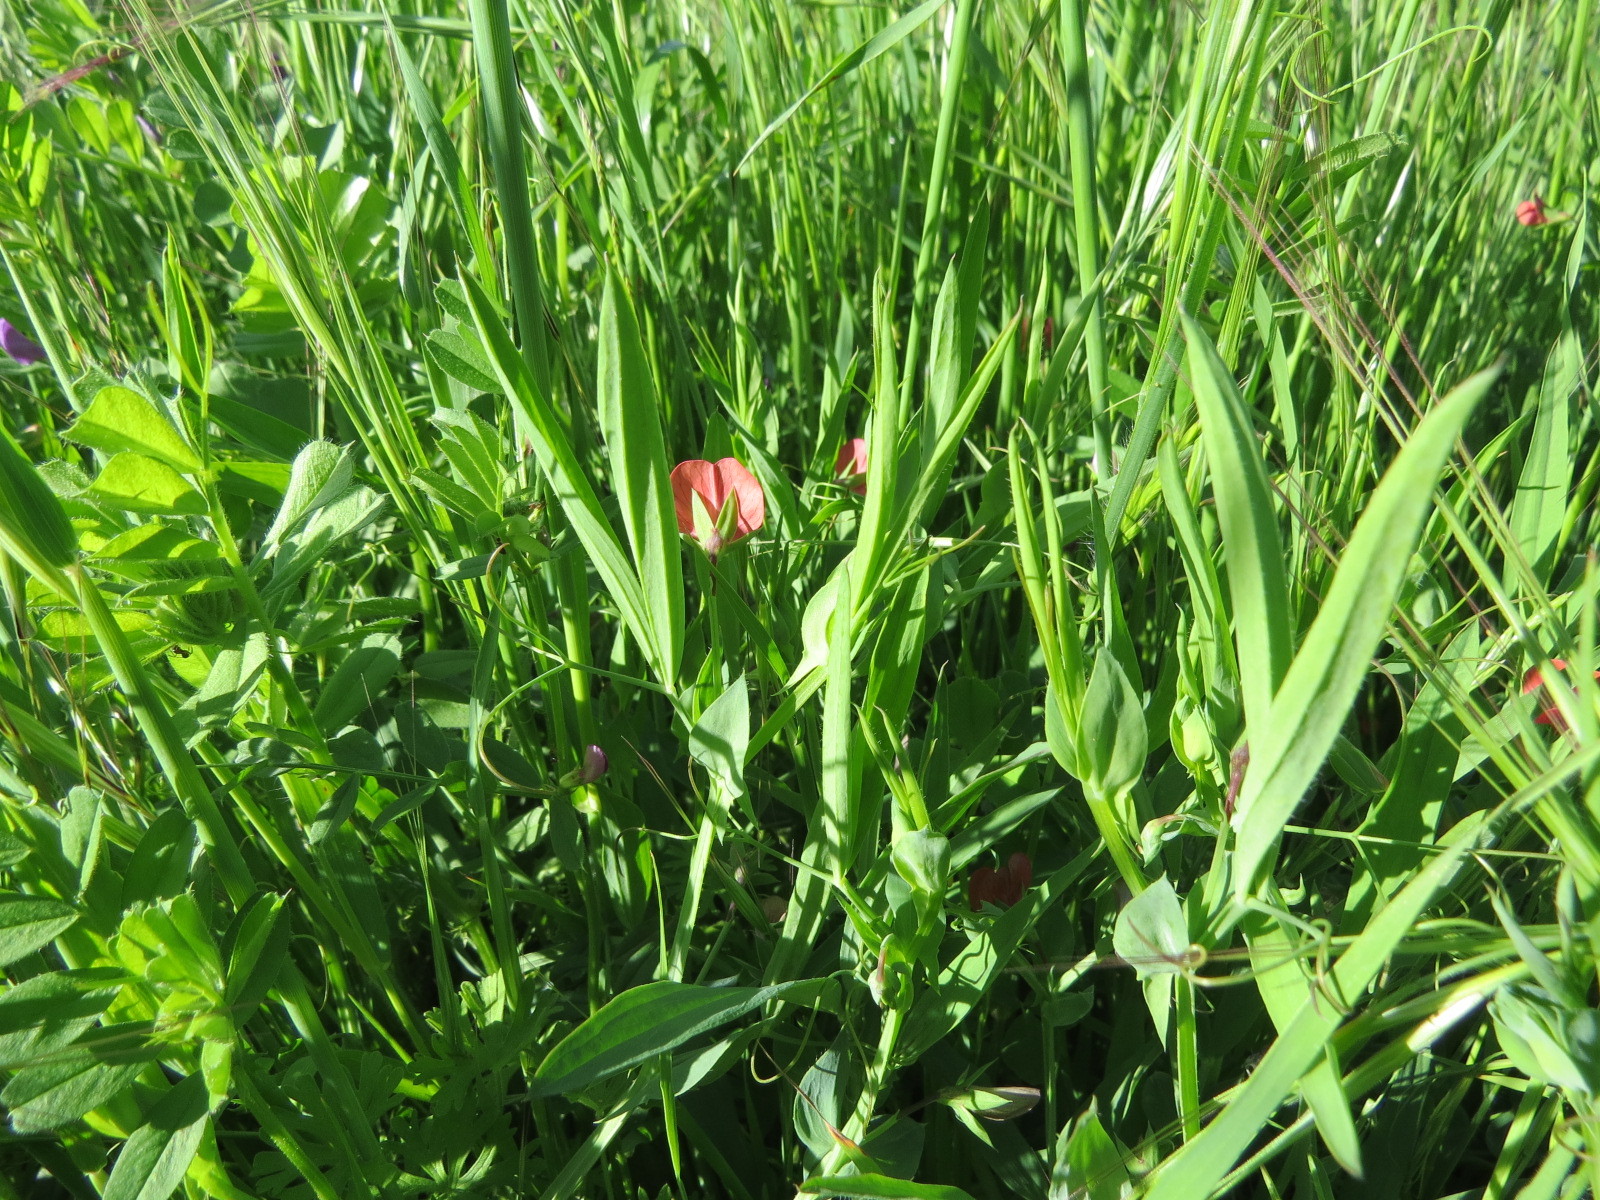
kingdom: Plantae
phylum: Tracheophyta
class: Magnoliopsida
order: Fabales
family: Fabaceae
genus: Lathyrus
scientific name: Lathyrus cicera
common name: Red vetchling
